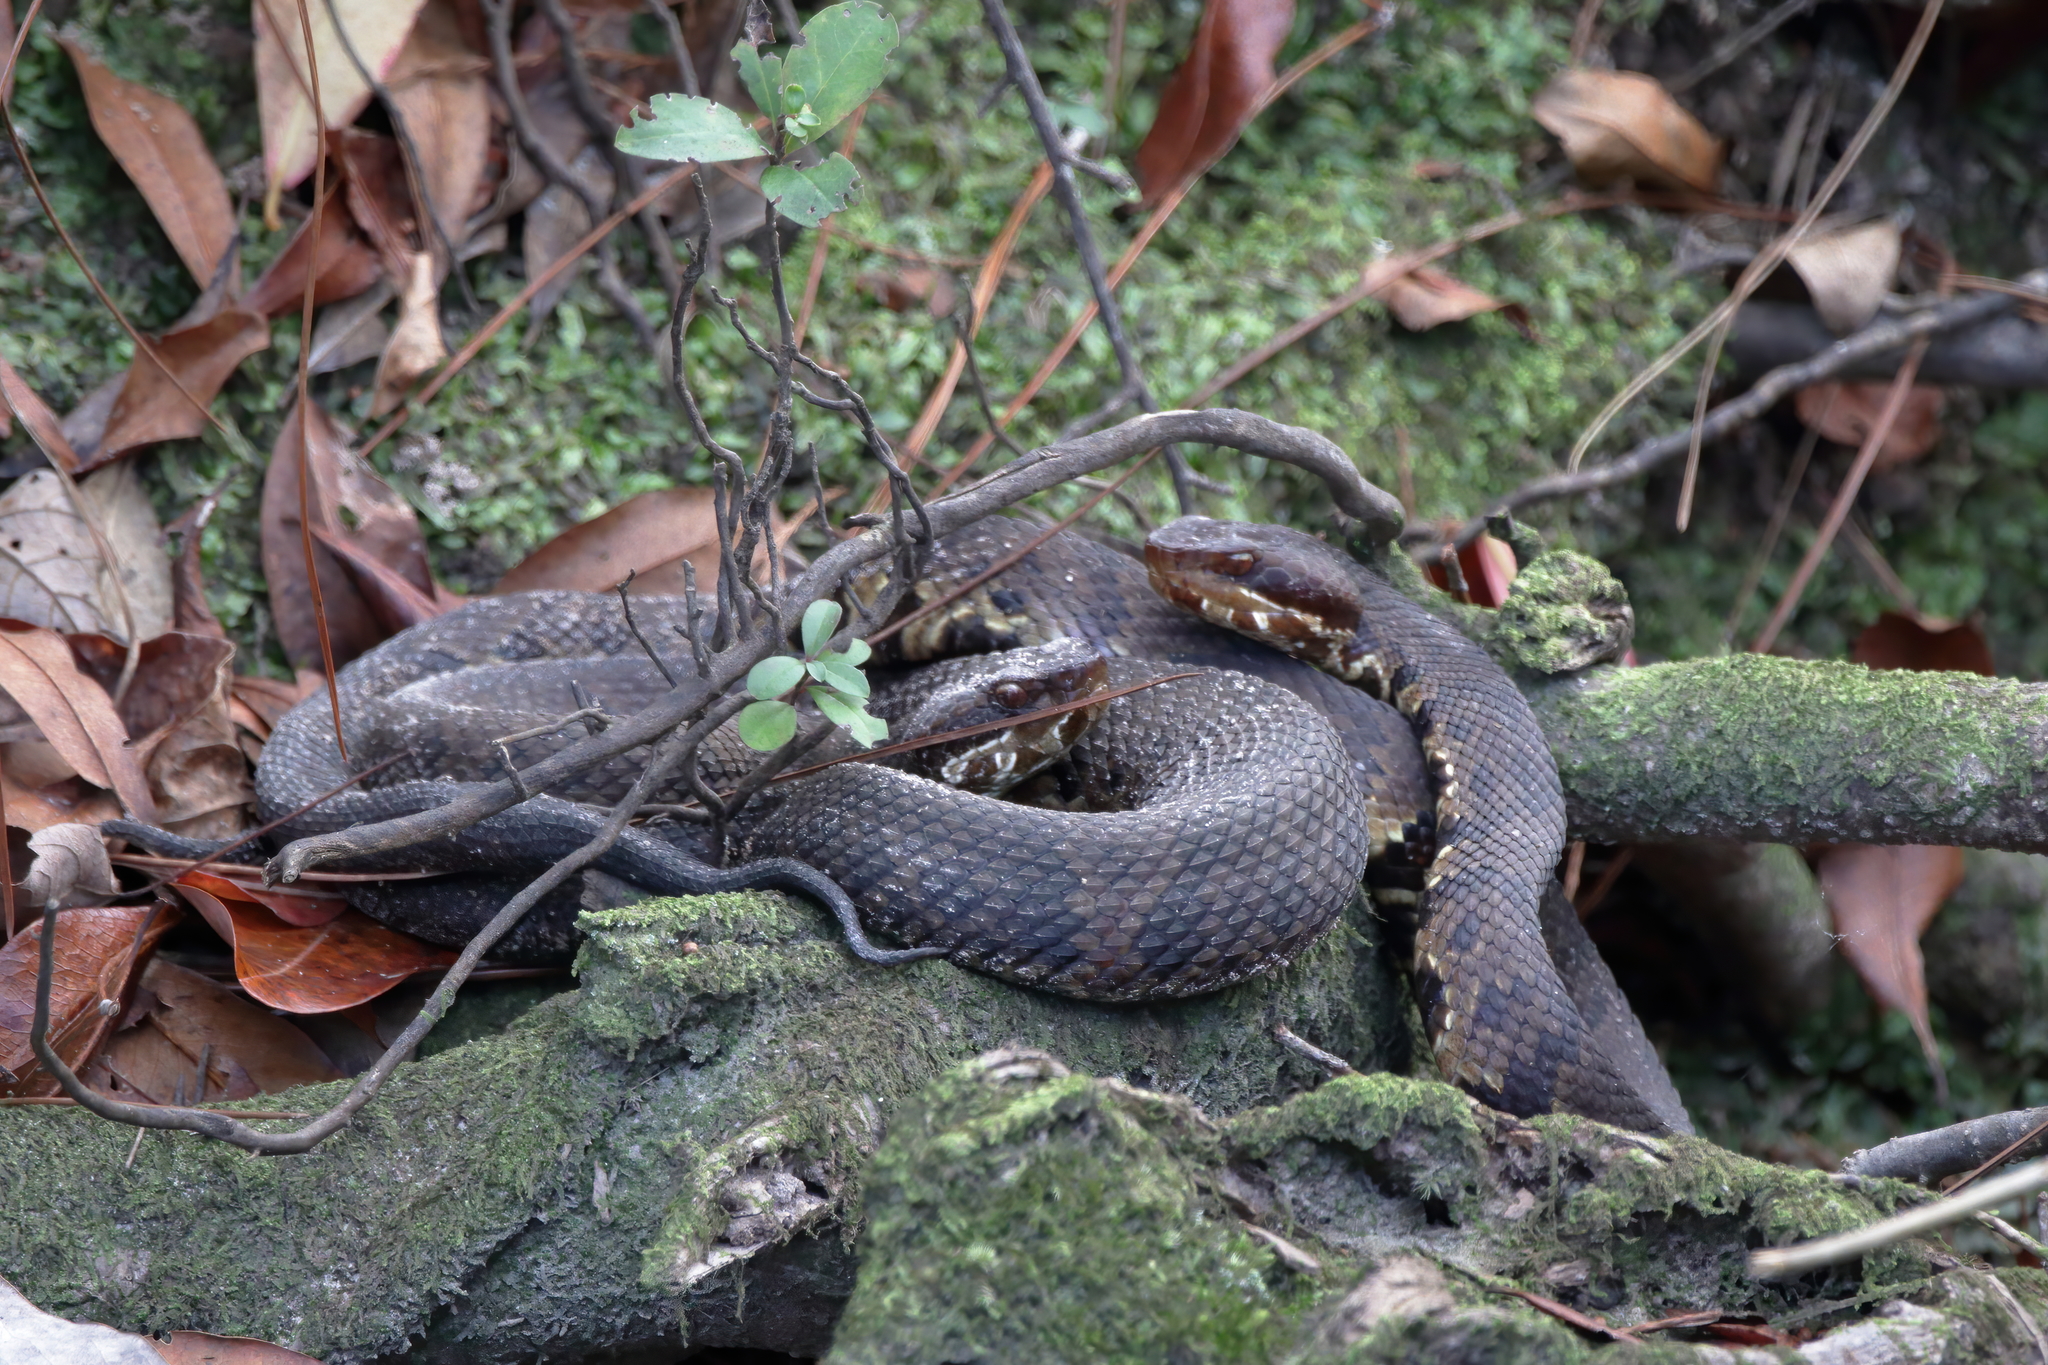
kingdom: Animalia
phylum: Chordata
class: Squamata
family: Viperidae
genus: Agkistrodon
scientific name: Agkistrodon piscivorus
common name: Cottonmouth
